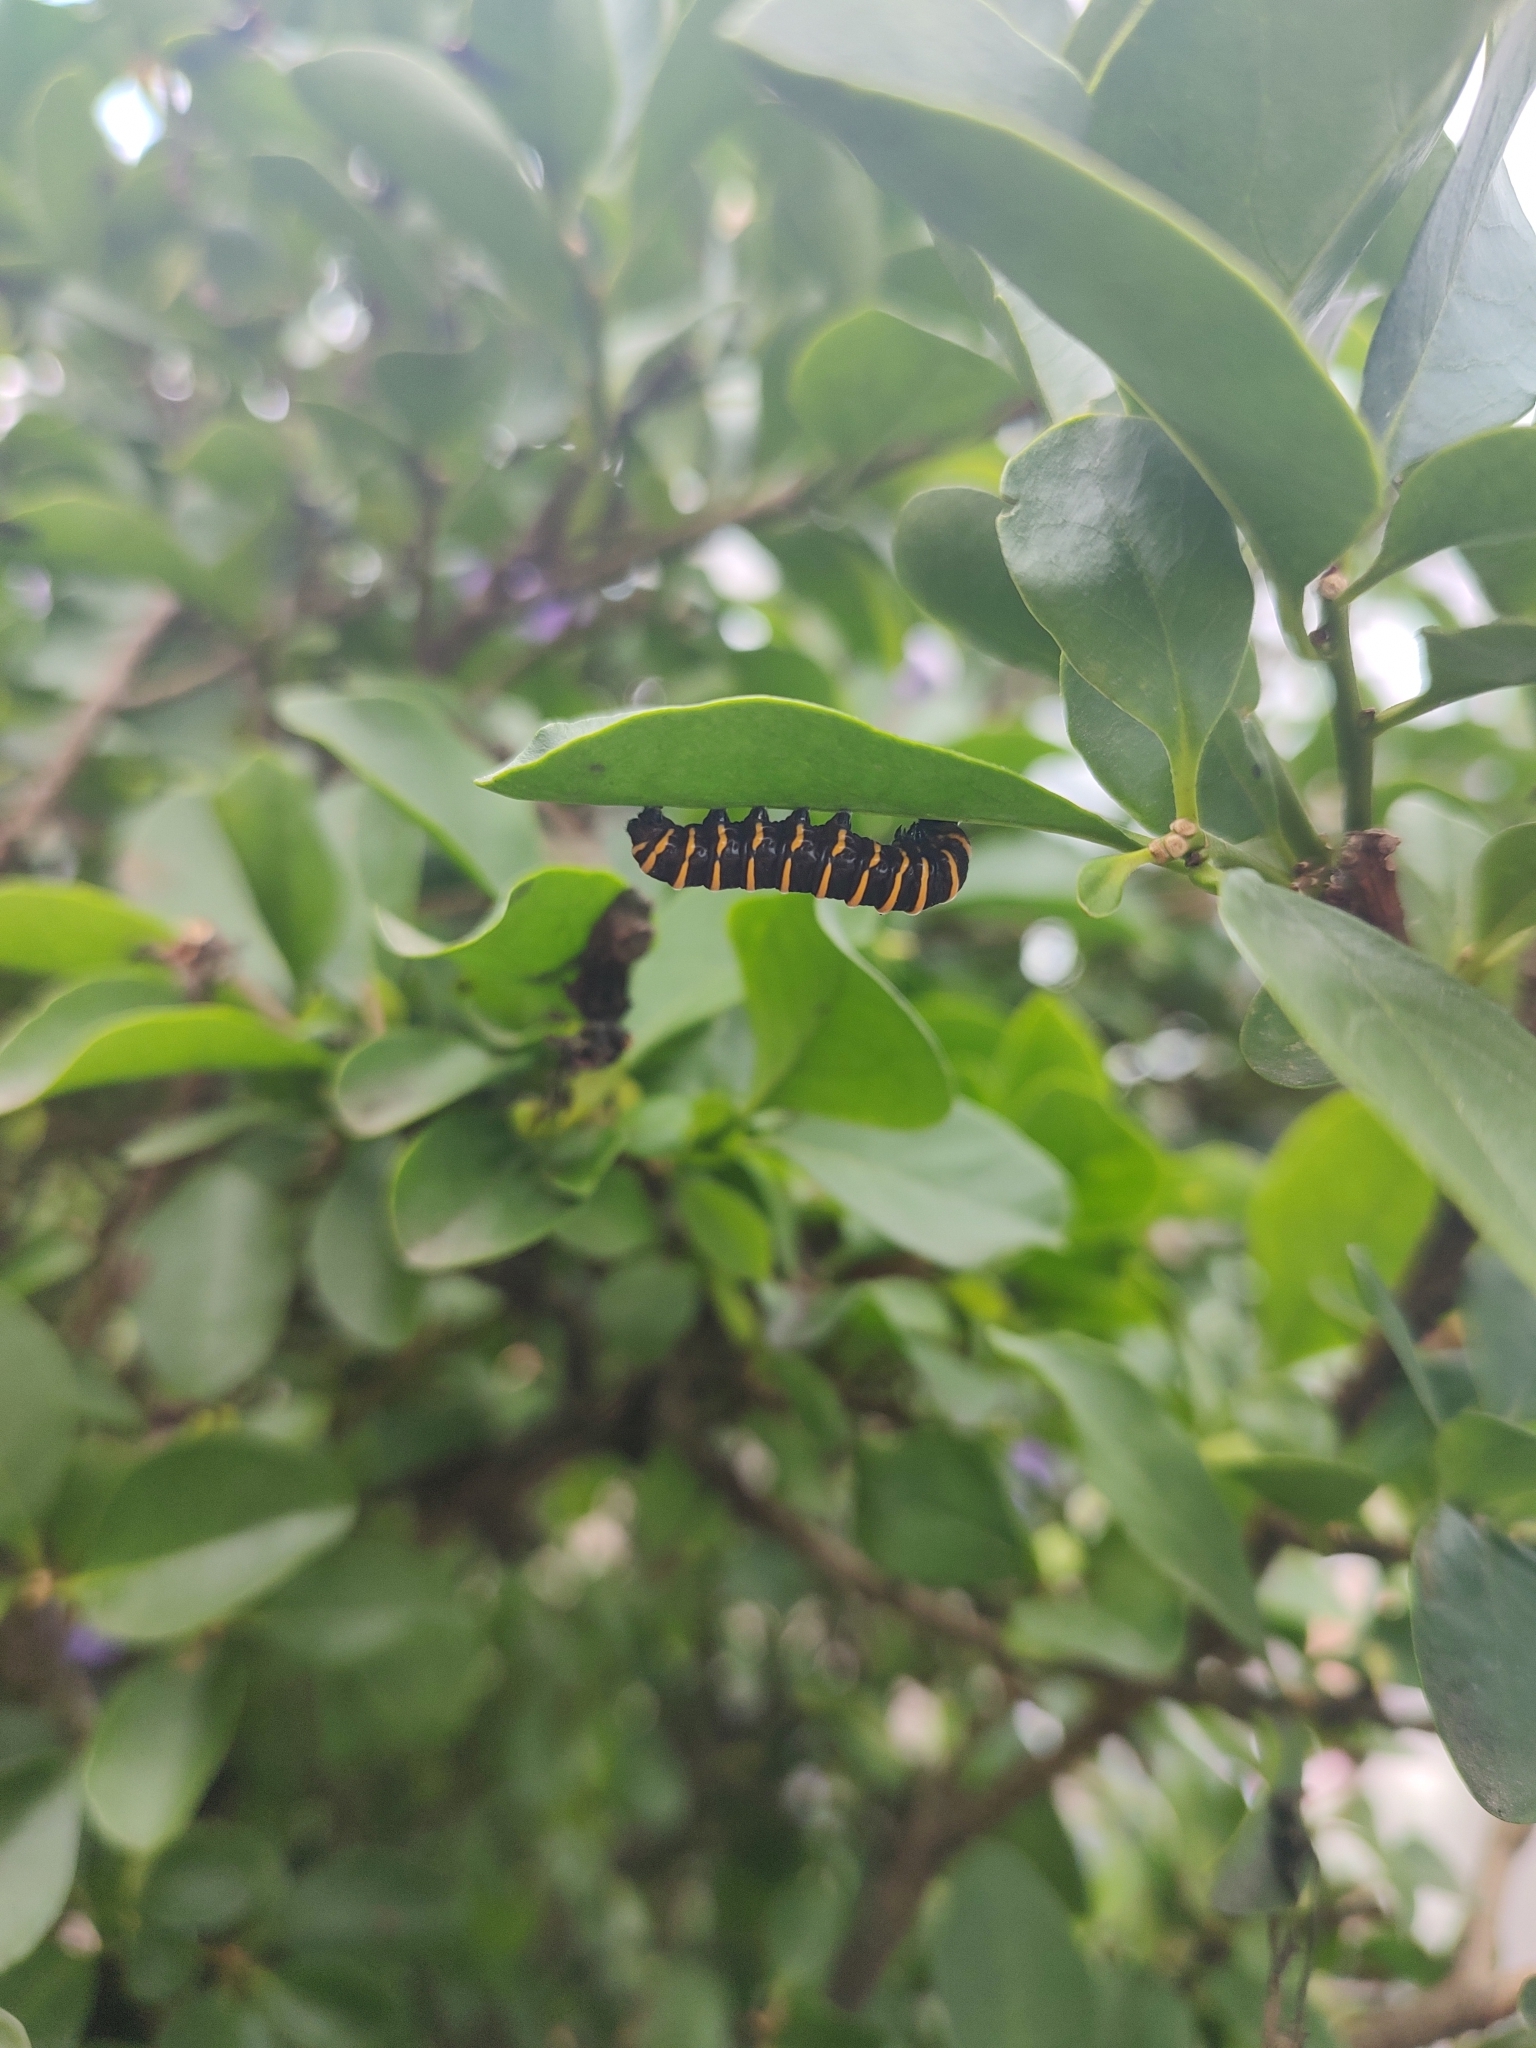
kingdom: Animalia
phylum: Arthropoda
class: Insecta
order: Lepidoptera
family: Nymphalidae
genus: Methona
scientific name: Methona themisto
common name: Themisto amberwing
